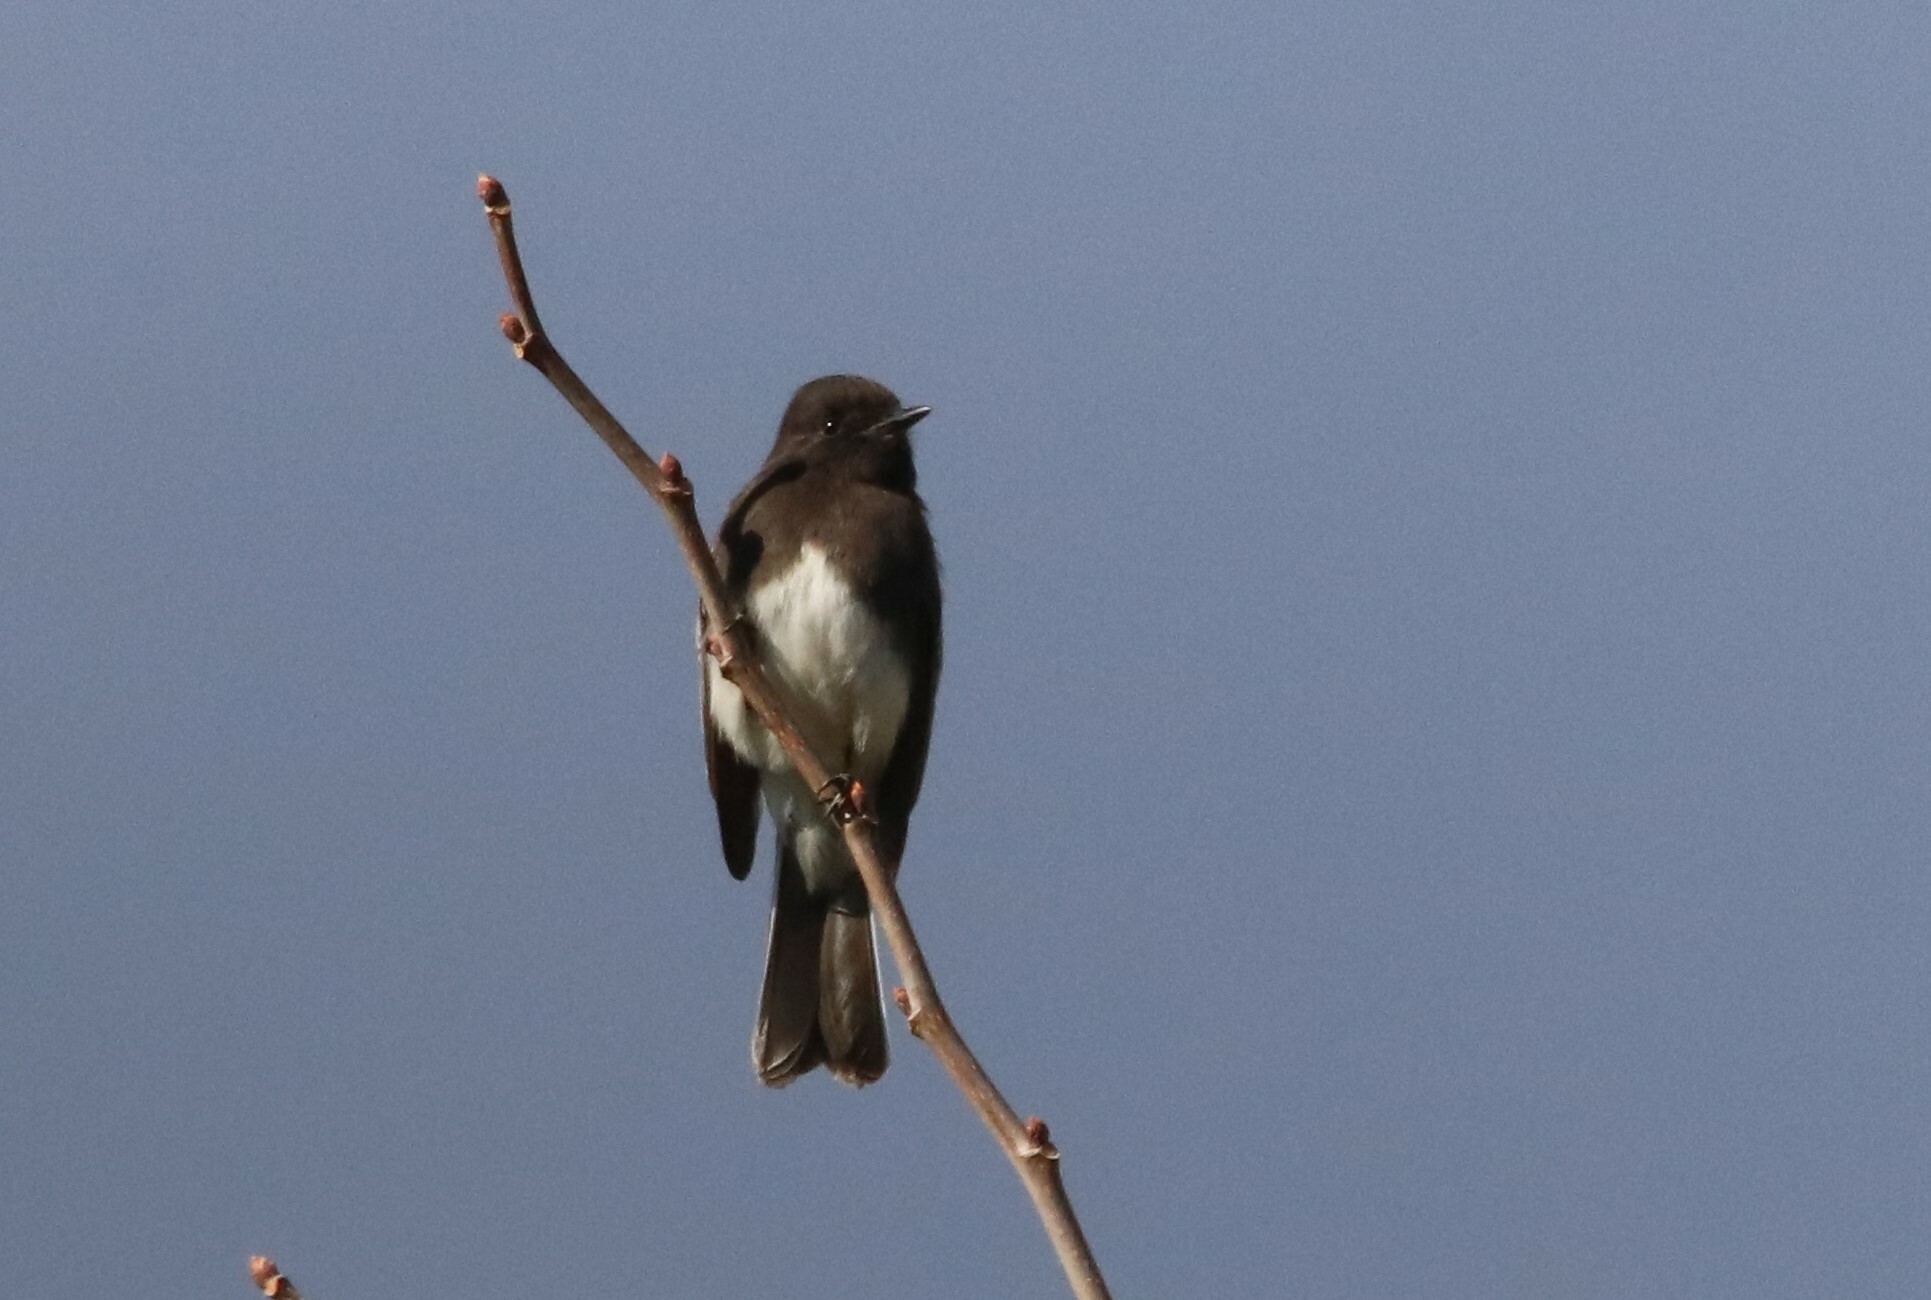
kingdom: Animalia
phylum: Chordata
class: Aves
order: Passeriformes
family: Tyrannidae
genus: Sayornis
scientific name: Sayornis nigricans
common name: Black phoebe
